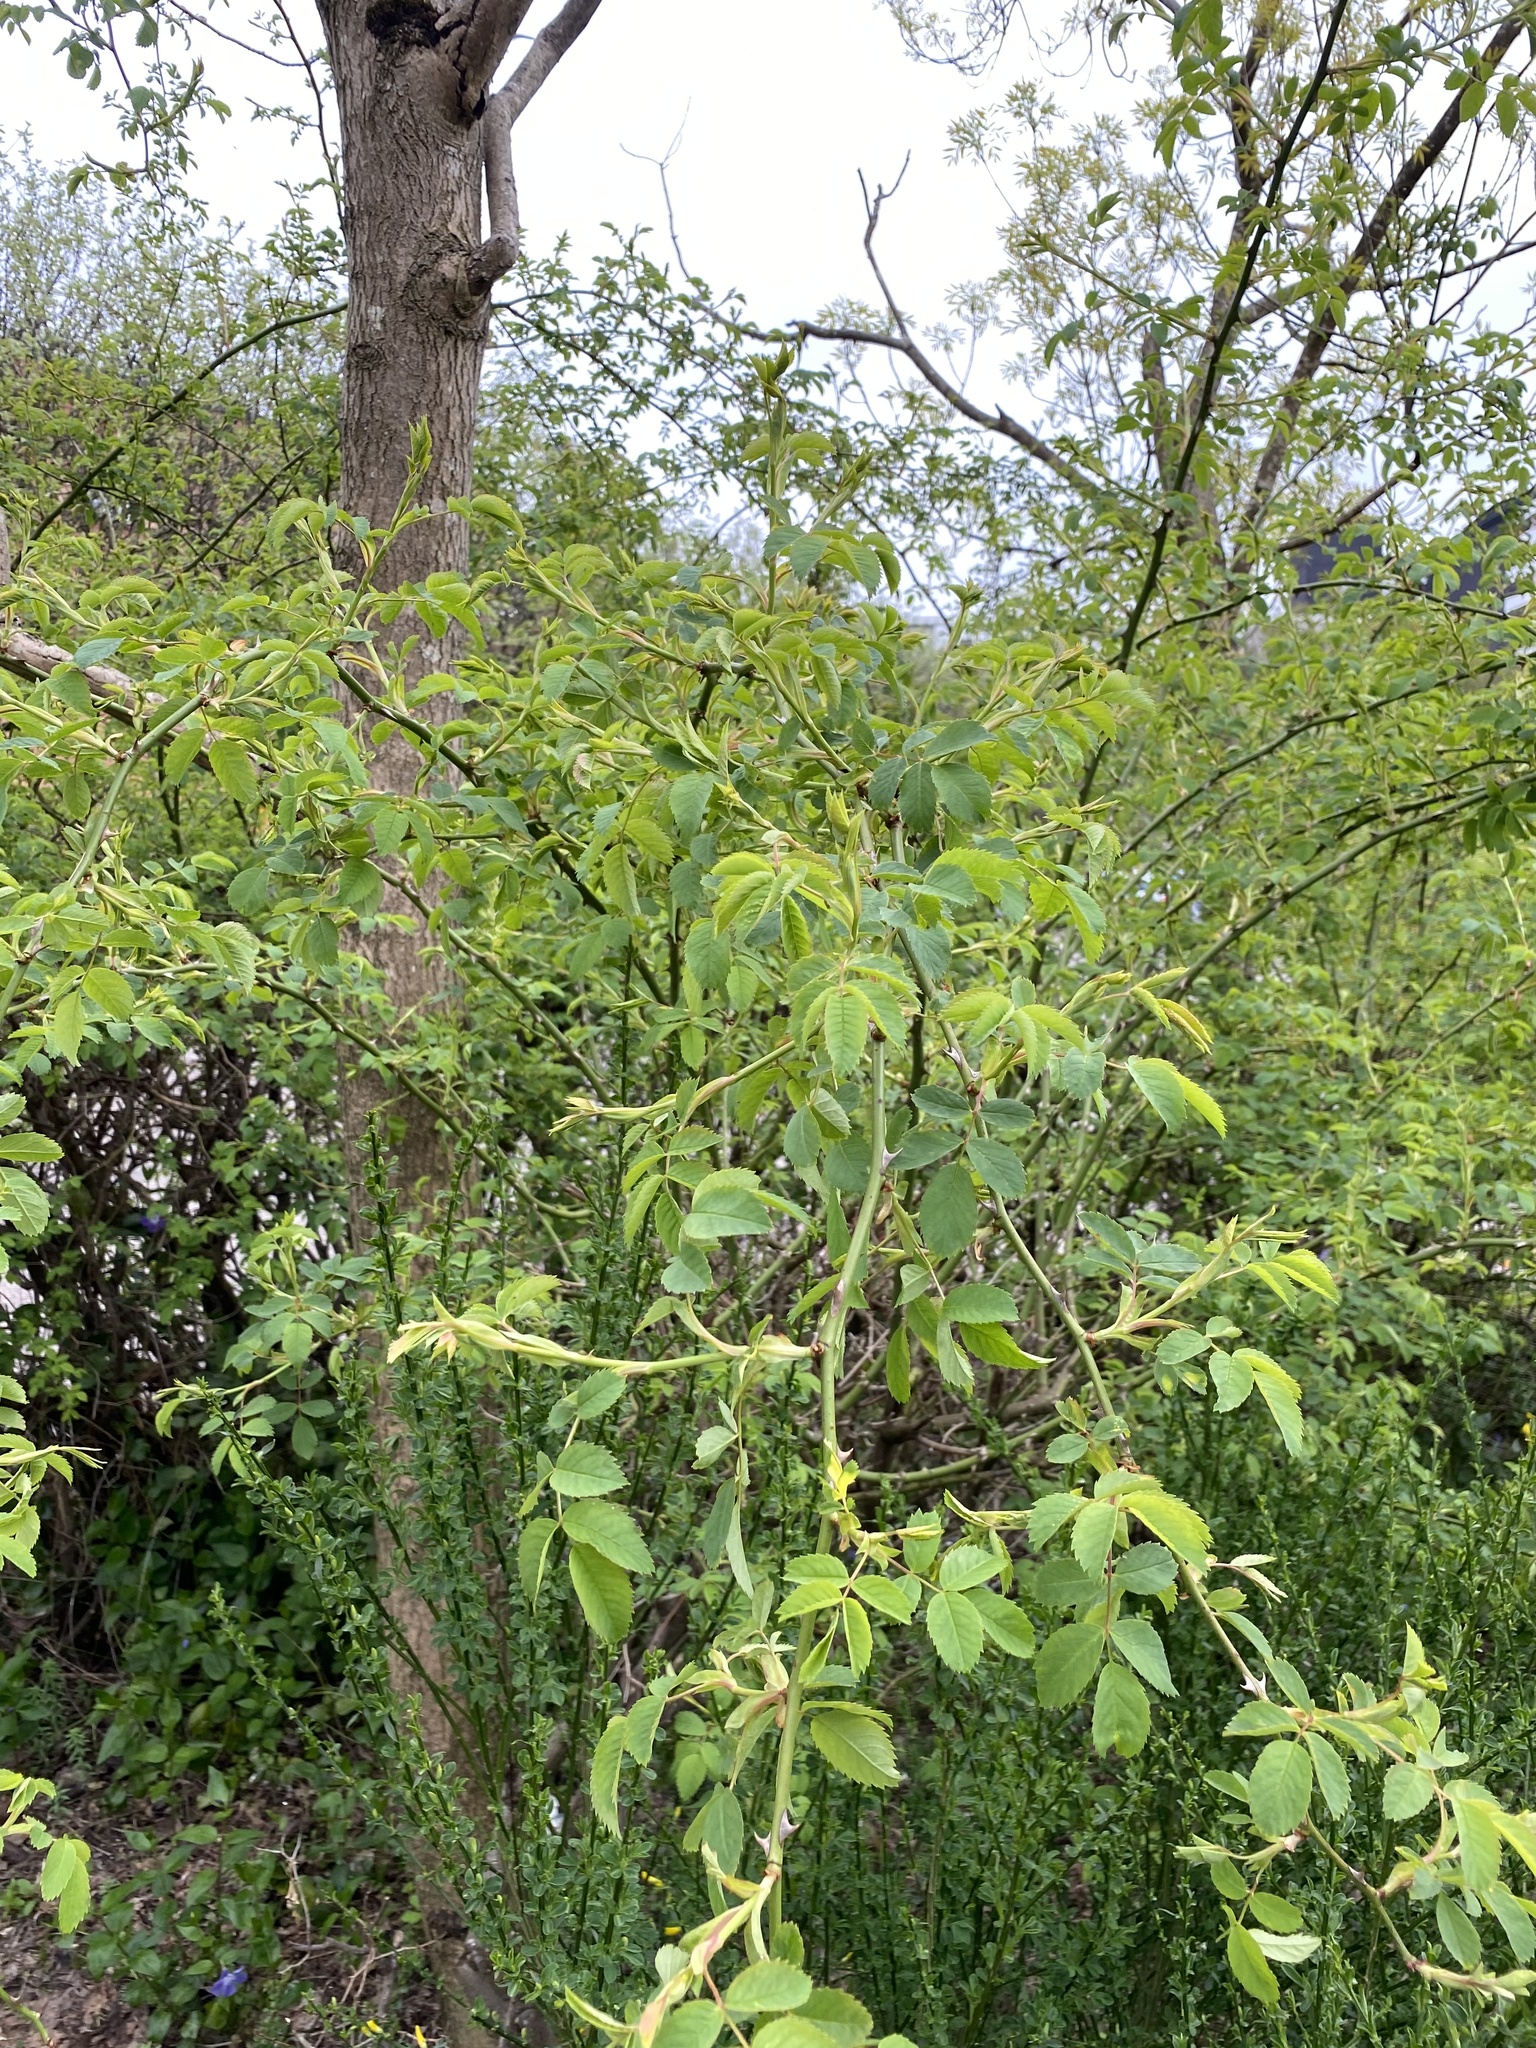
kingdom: Plantae
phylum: Tracheophyta
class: Magnoliopsida
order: Rosales
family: Rosaceae
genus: Rosa
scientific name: Rosa canina
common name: Dog rose
